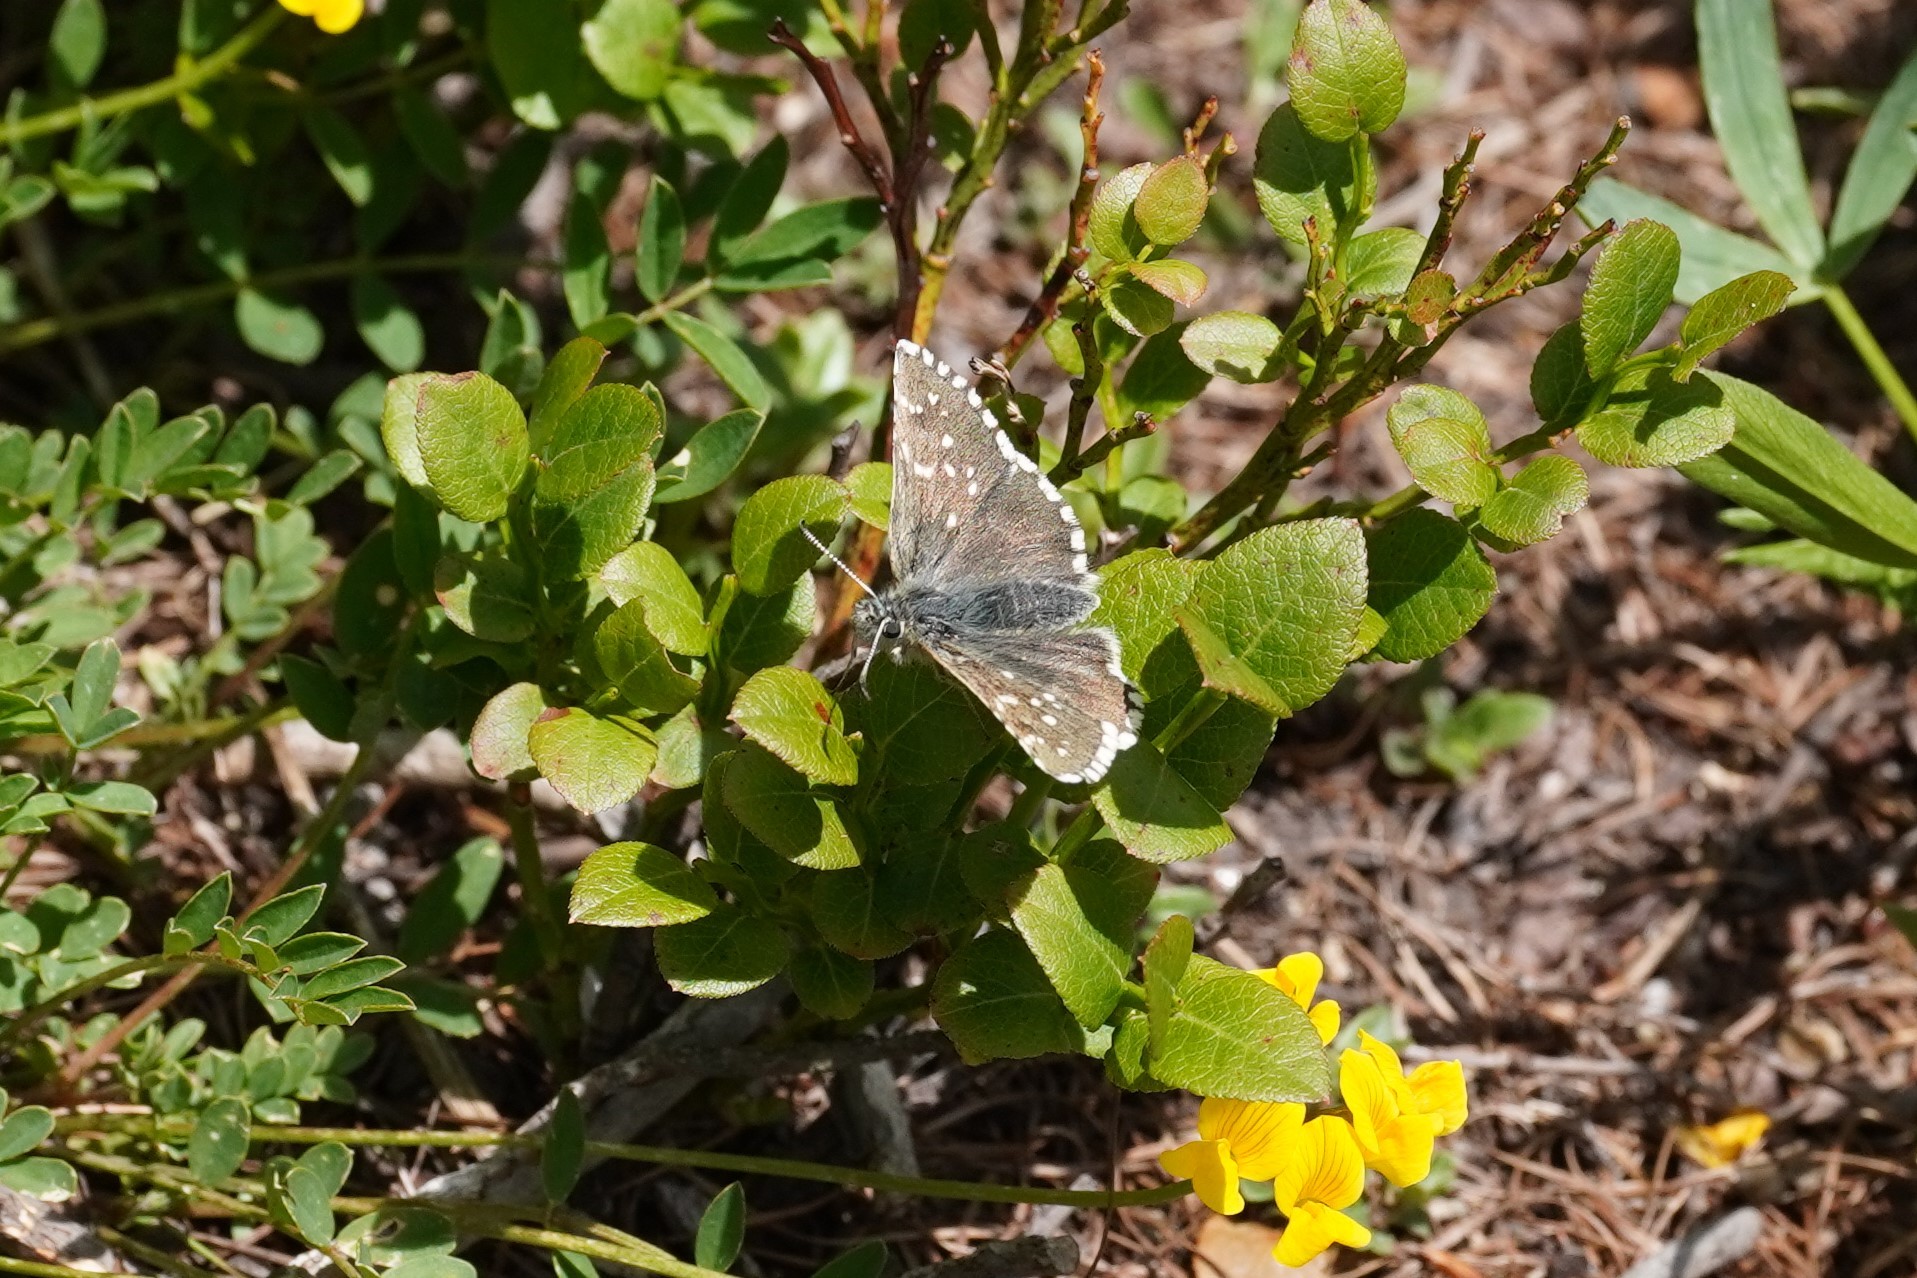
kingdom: Animalia
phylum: Arthropoda
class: Insecta
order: Lepidoptera
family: Hesperiidae
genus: Pyrgus
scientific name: Pyrgus cacaliae
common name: Dusky grizzled skipper
